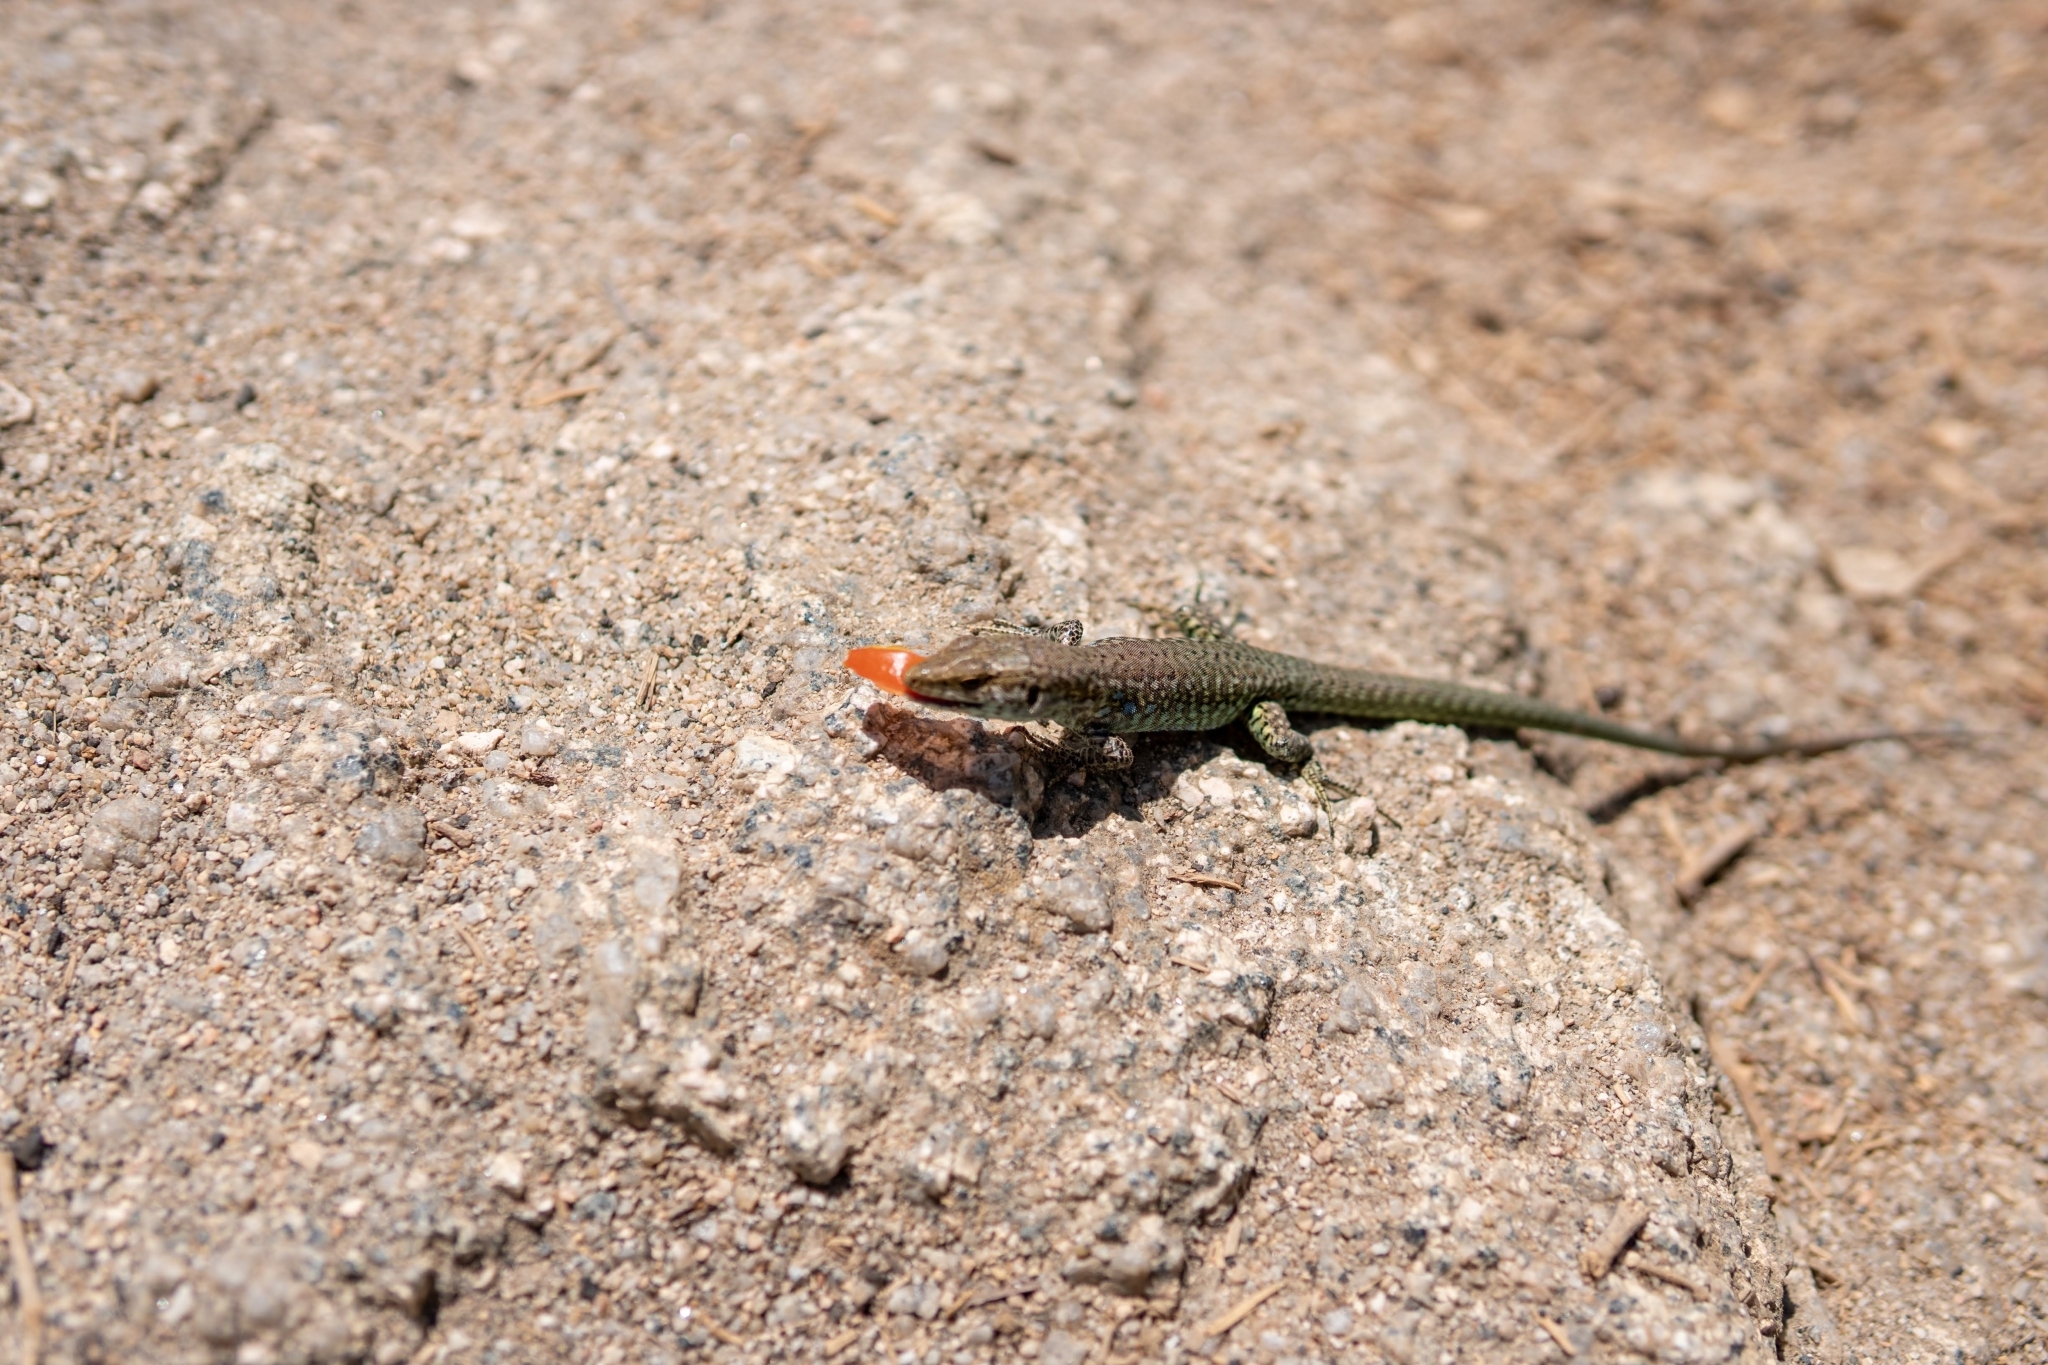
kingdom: Animalia
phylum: Chordata
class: Squamata
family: Lacertidae
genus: Podarcis
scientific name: Podarcis tiliguerta
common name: Tyrrhenian wall lizard
